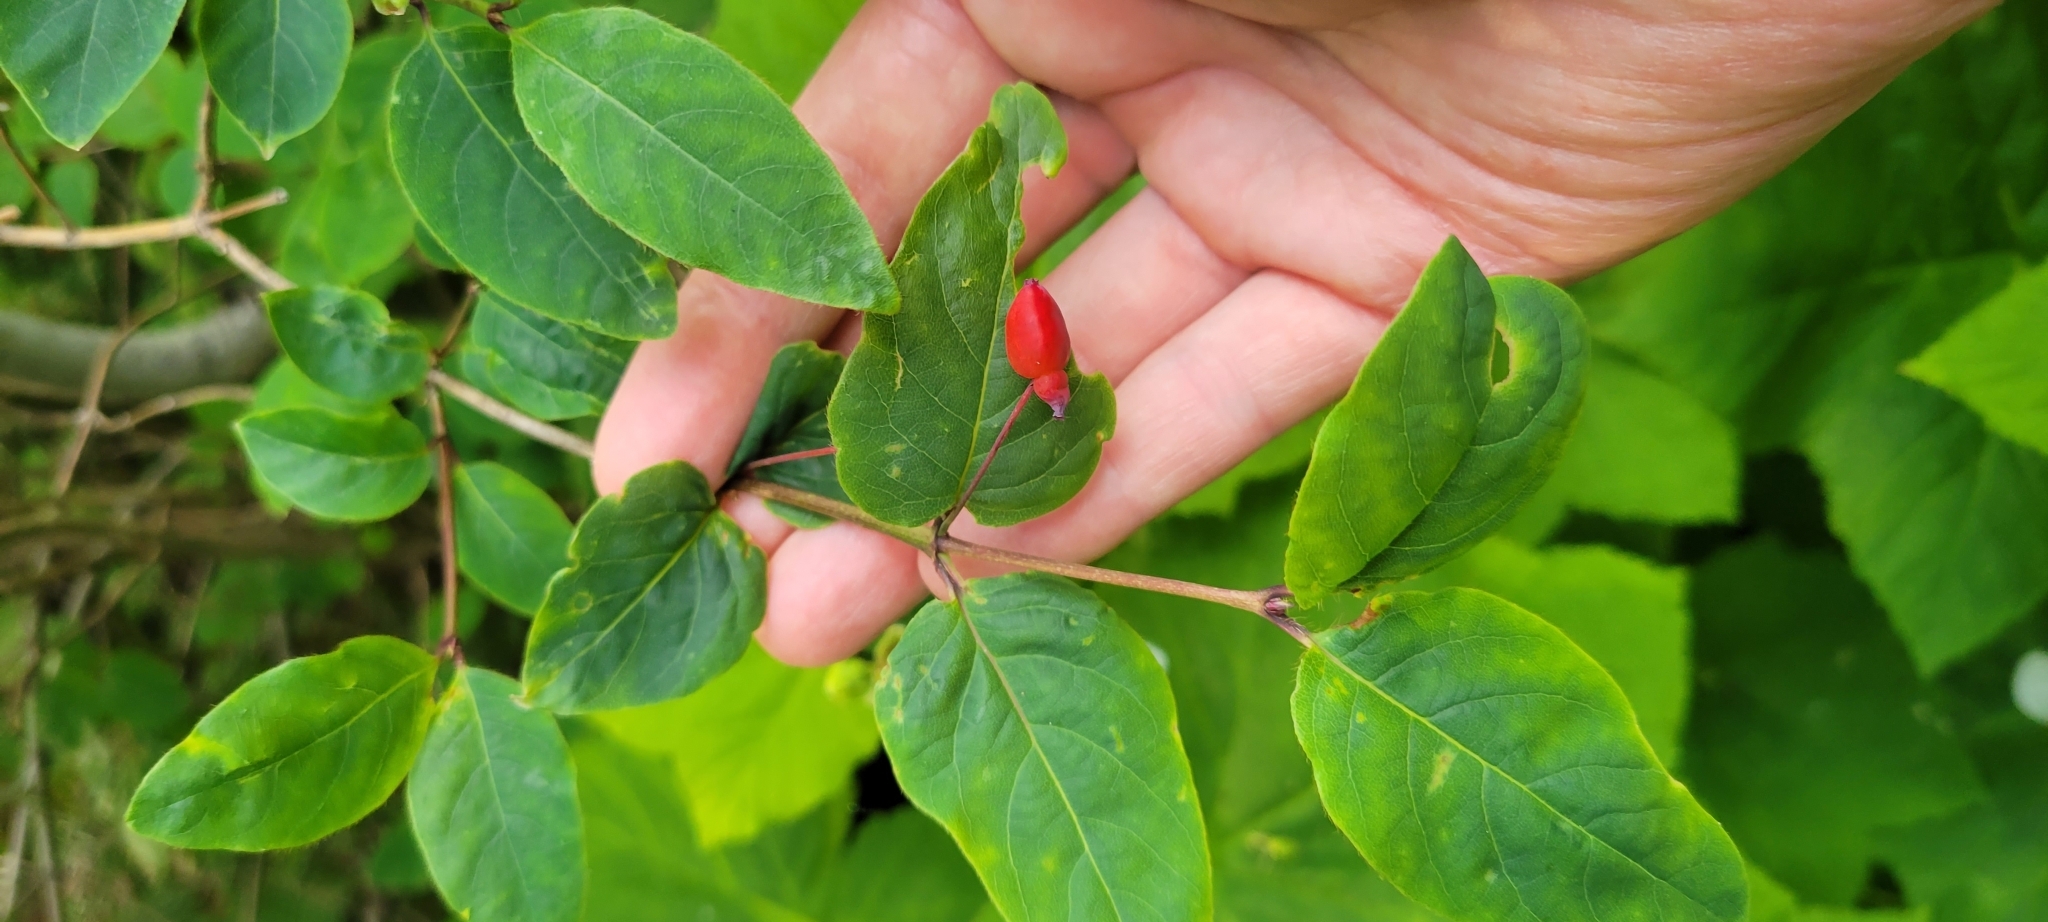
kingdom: Plantae
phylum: Tracheophyta
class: Magnoliopsida
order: Dipsacales
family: Caprifoliaceae
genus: Lonicera
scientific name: Lonicera canadensis
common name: American fly-honeysuckle
